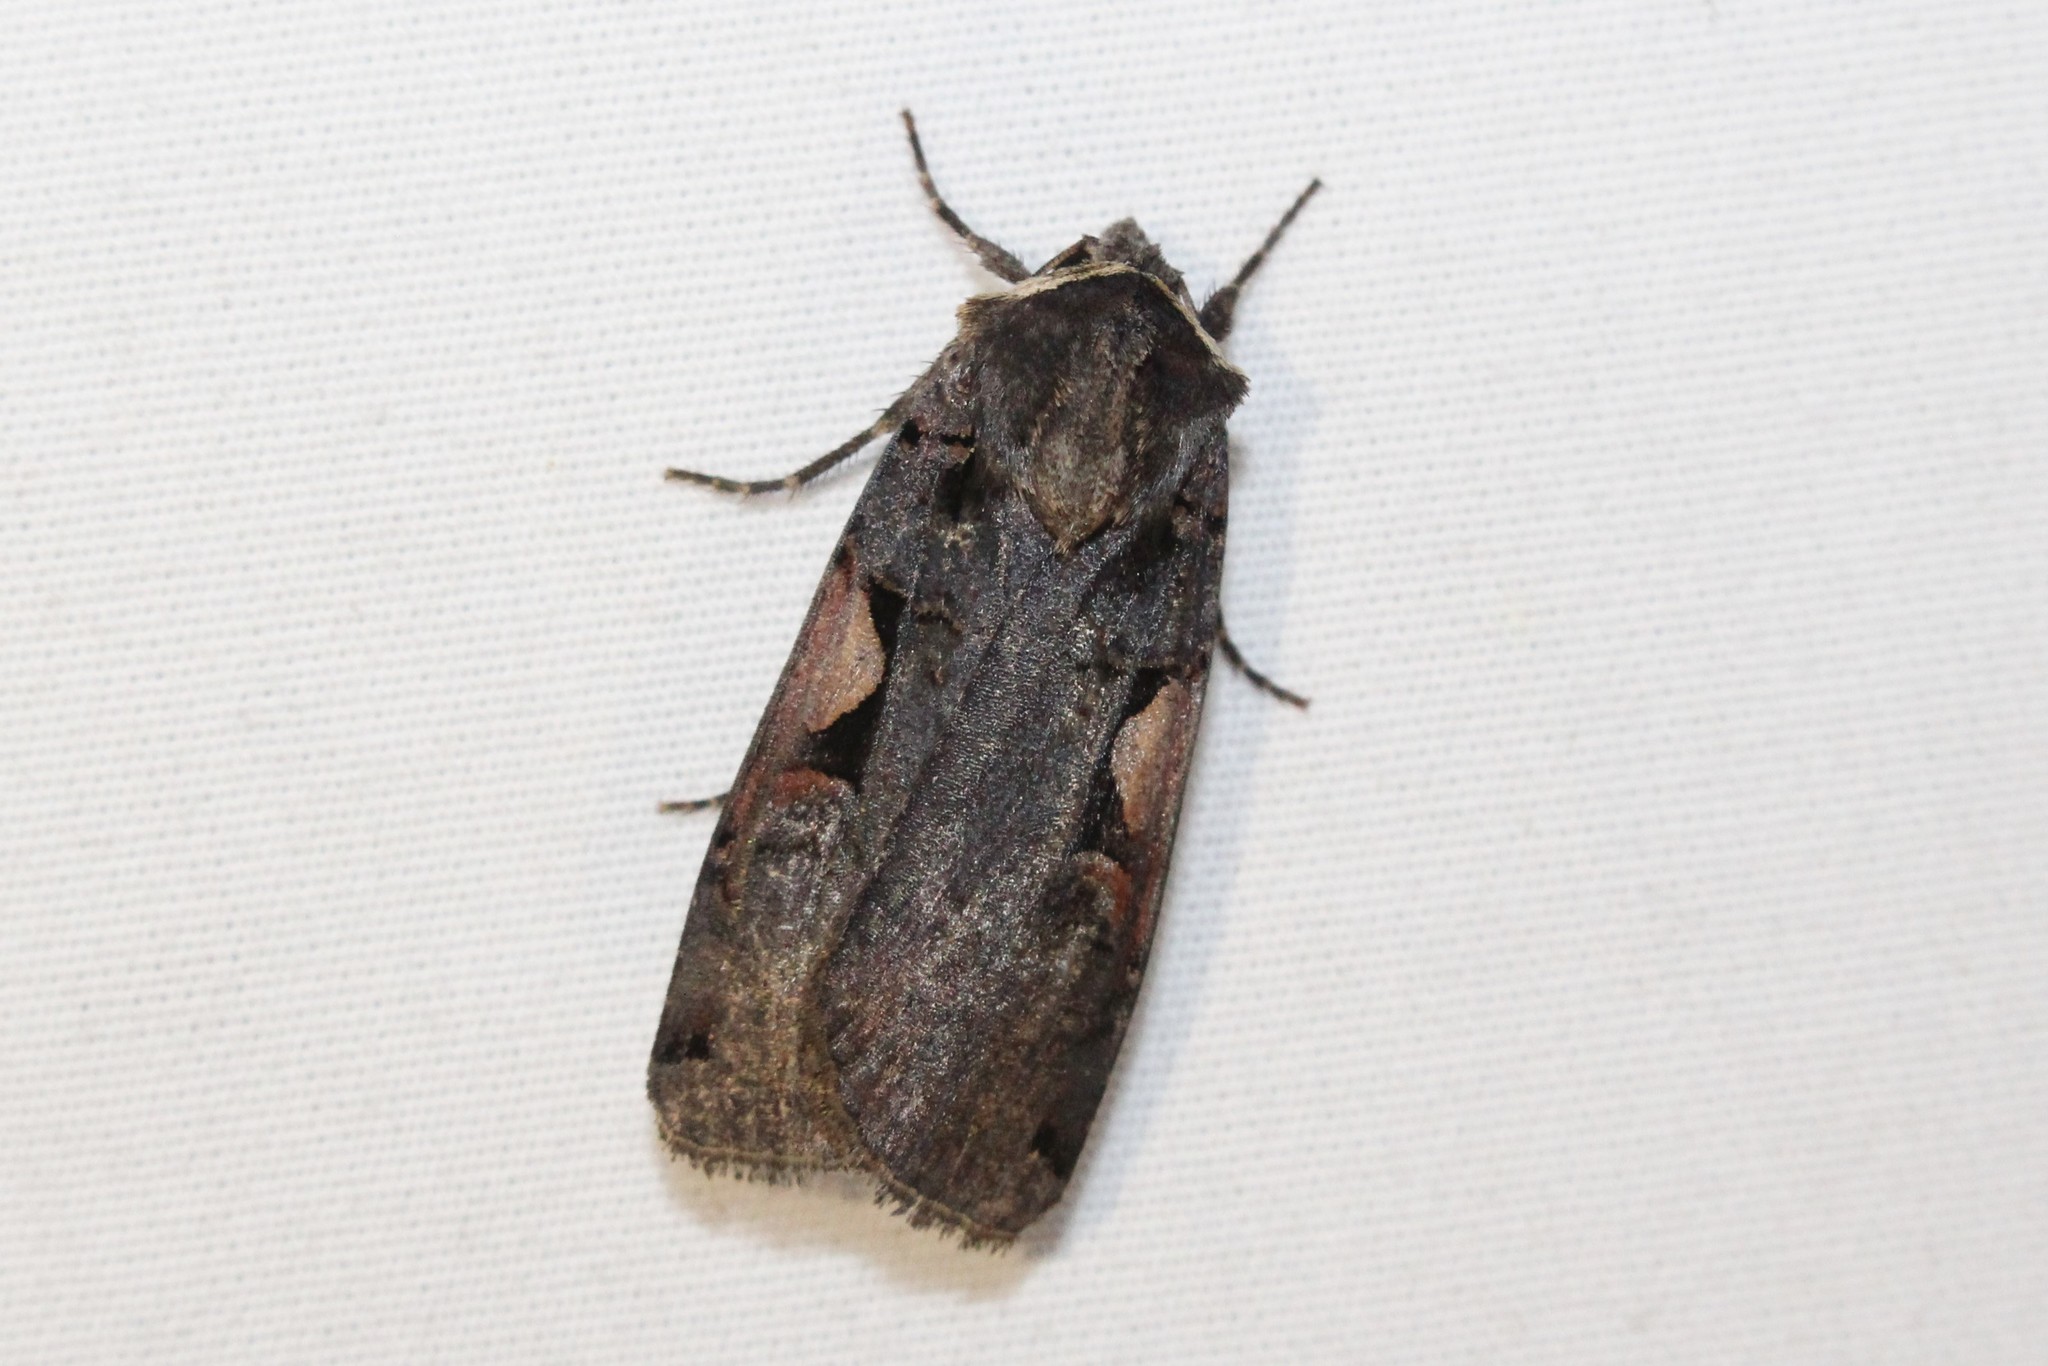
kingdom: Animalia
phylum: Arthropoda
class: Insecta
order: Lepidoptera
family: Noctuidae
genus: Xestia
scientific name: Xestia
